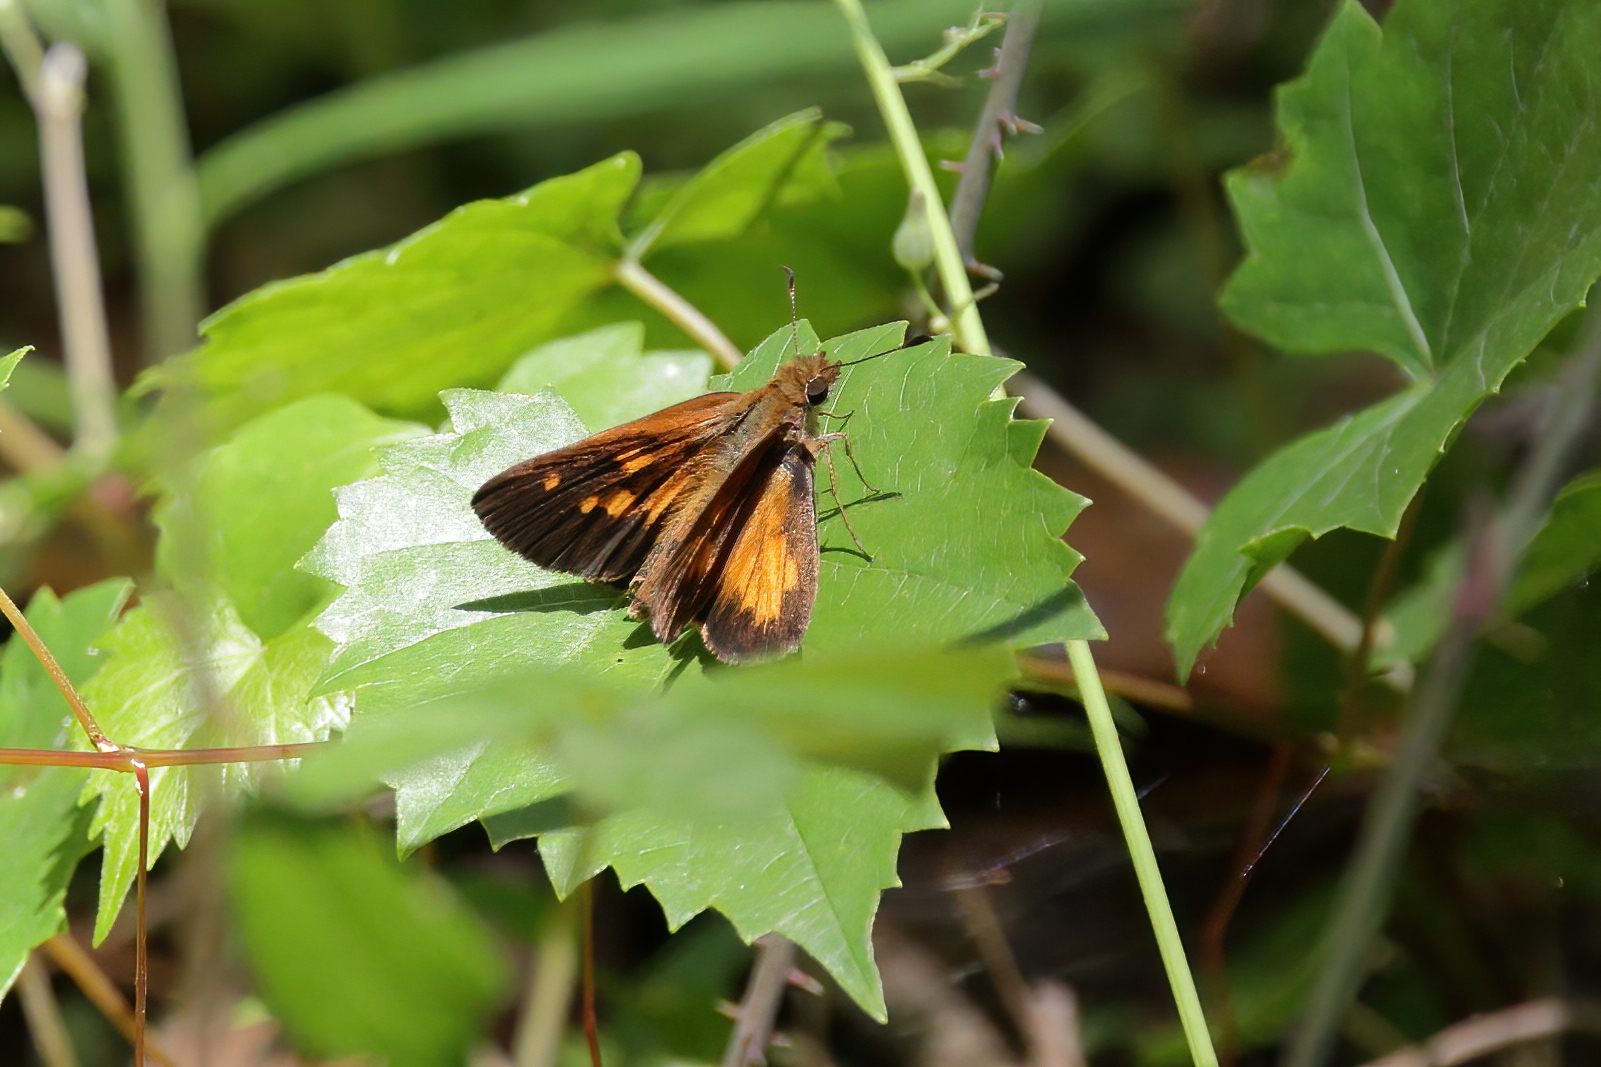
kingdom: Animalia
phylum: Arthropoda
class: Insecta
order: Lepidoptera
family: Hesperiidae
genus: Poanes
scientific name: Poanes viator
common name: Broad-winged skipper
